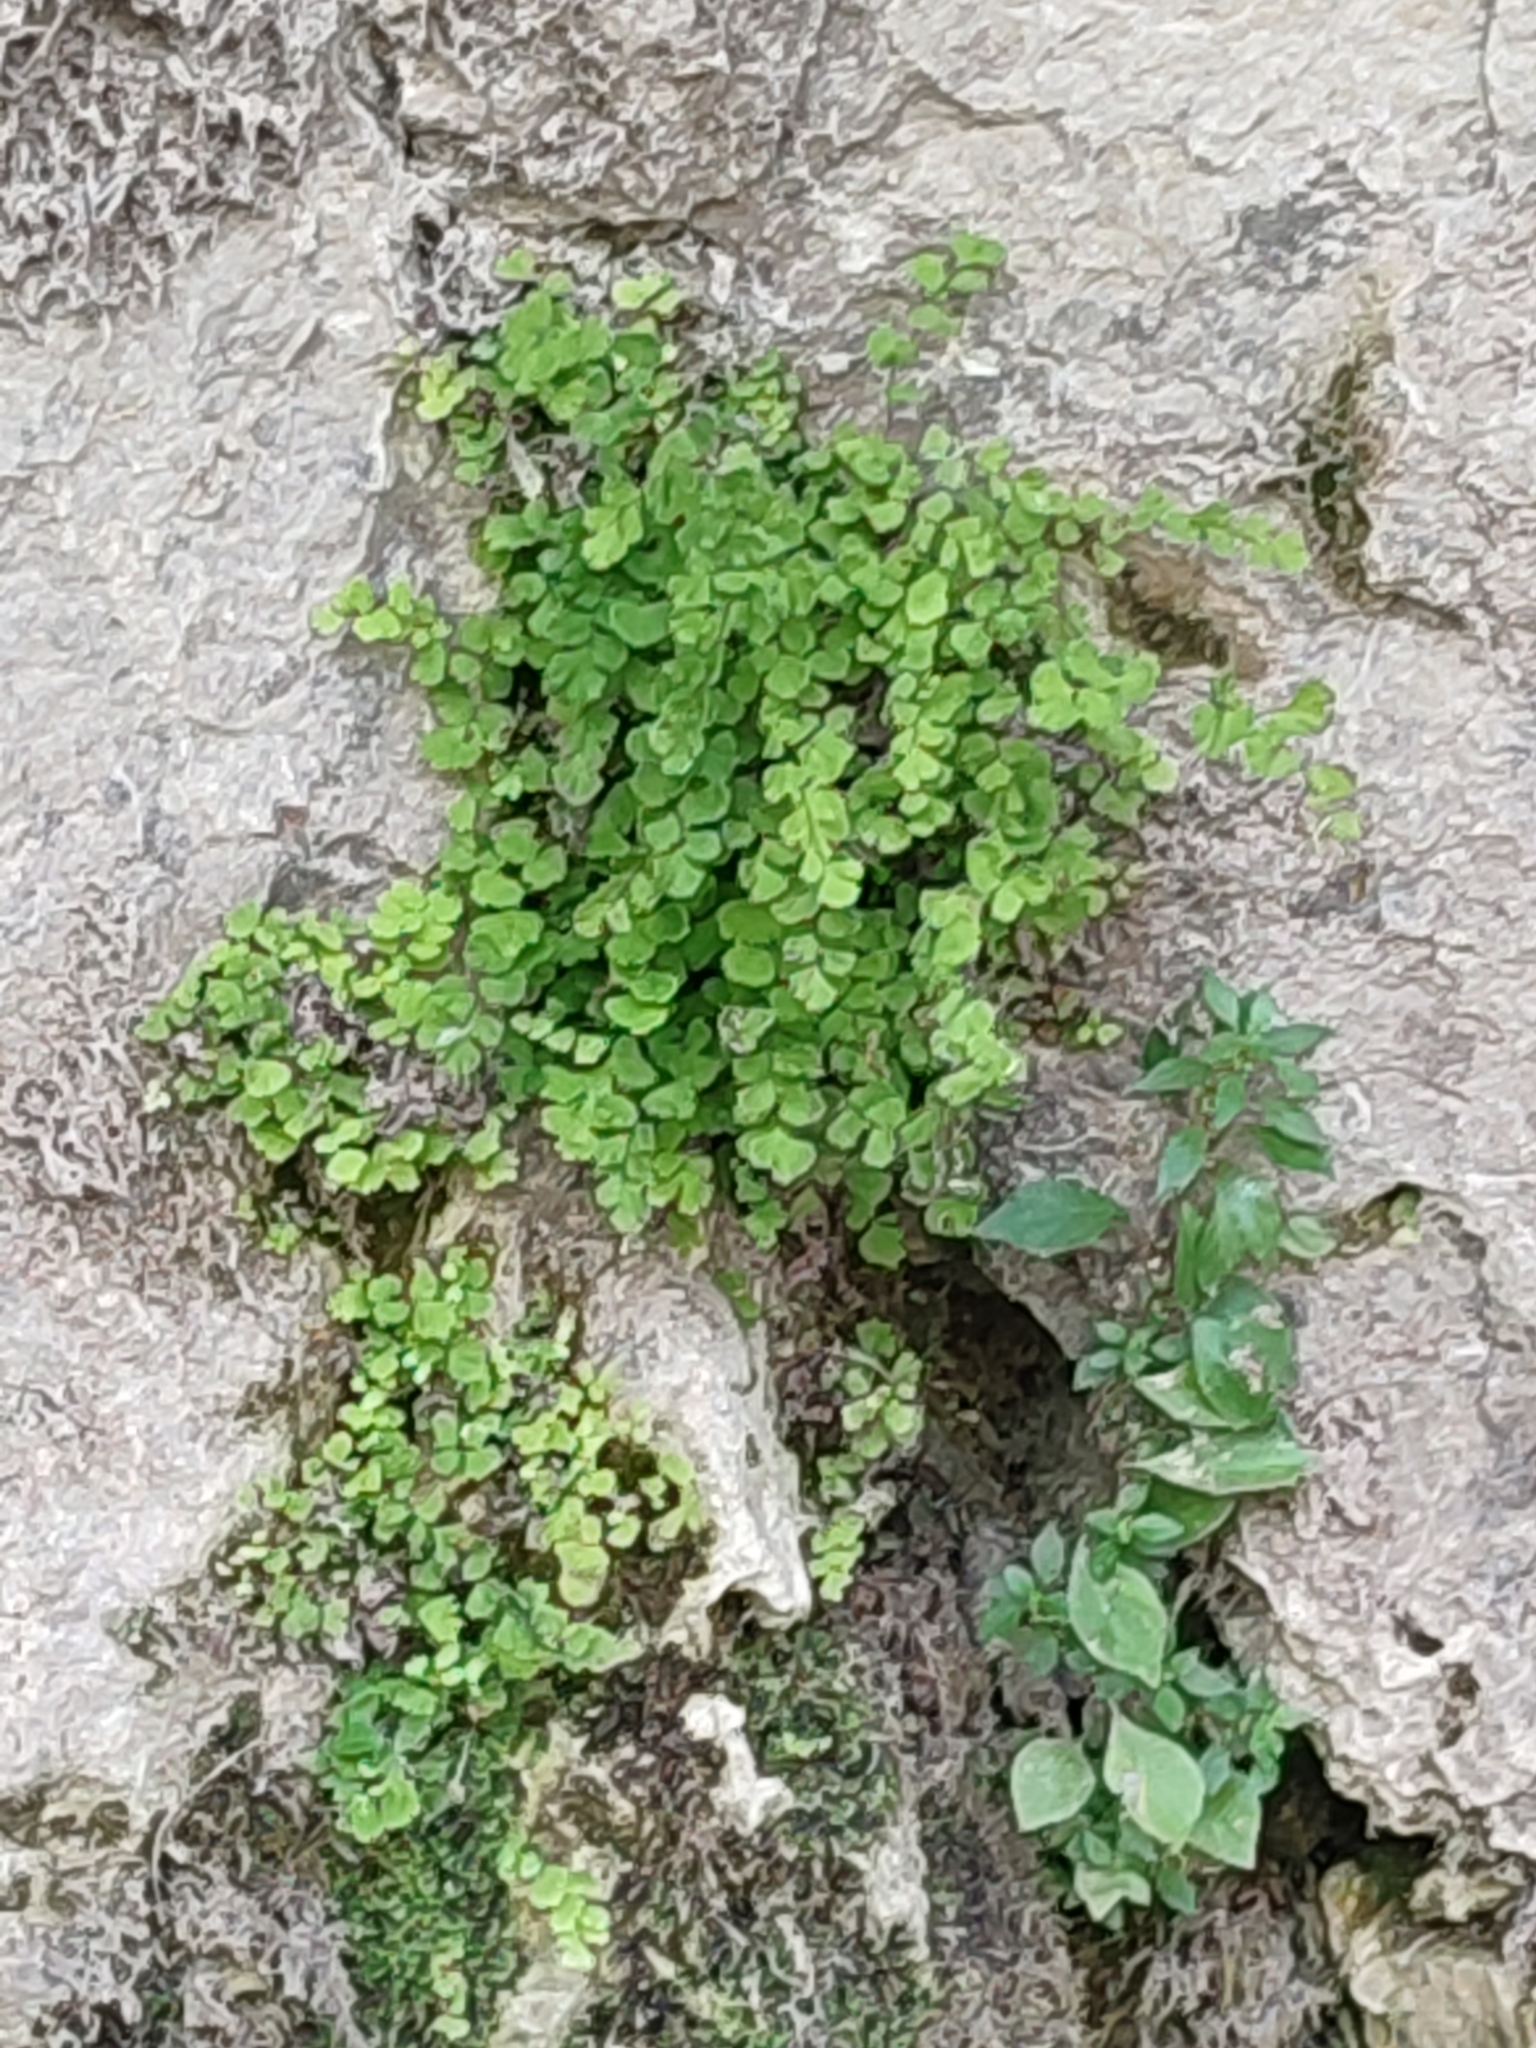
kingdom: Plantae
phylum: Tracheophyta
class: Polypodiopsida
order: Polypodiales
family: Pteridaceae
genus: Adiantum
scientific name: Adiantum capillus-veneris
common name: Maidenhair fern
